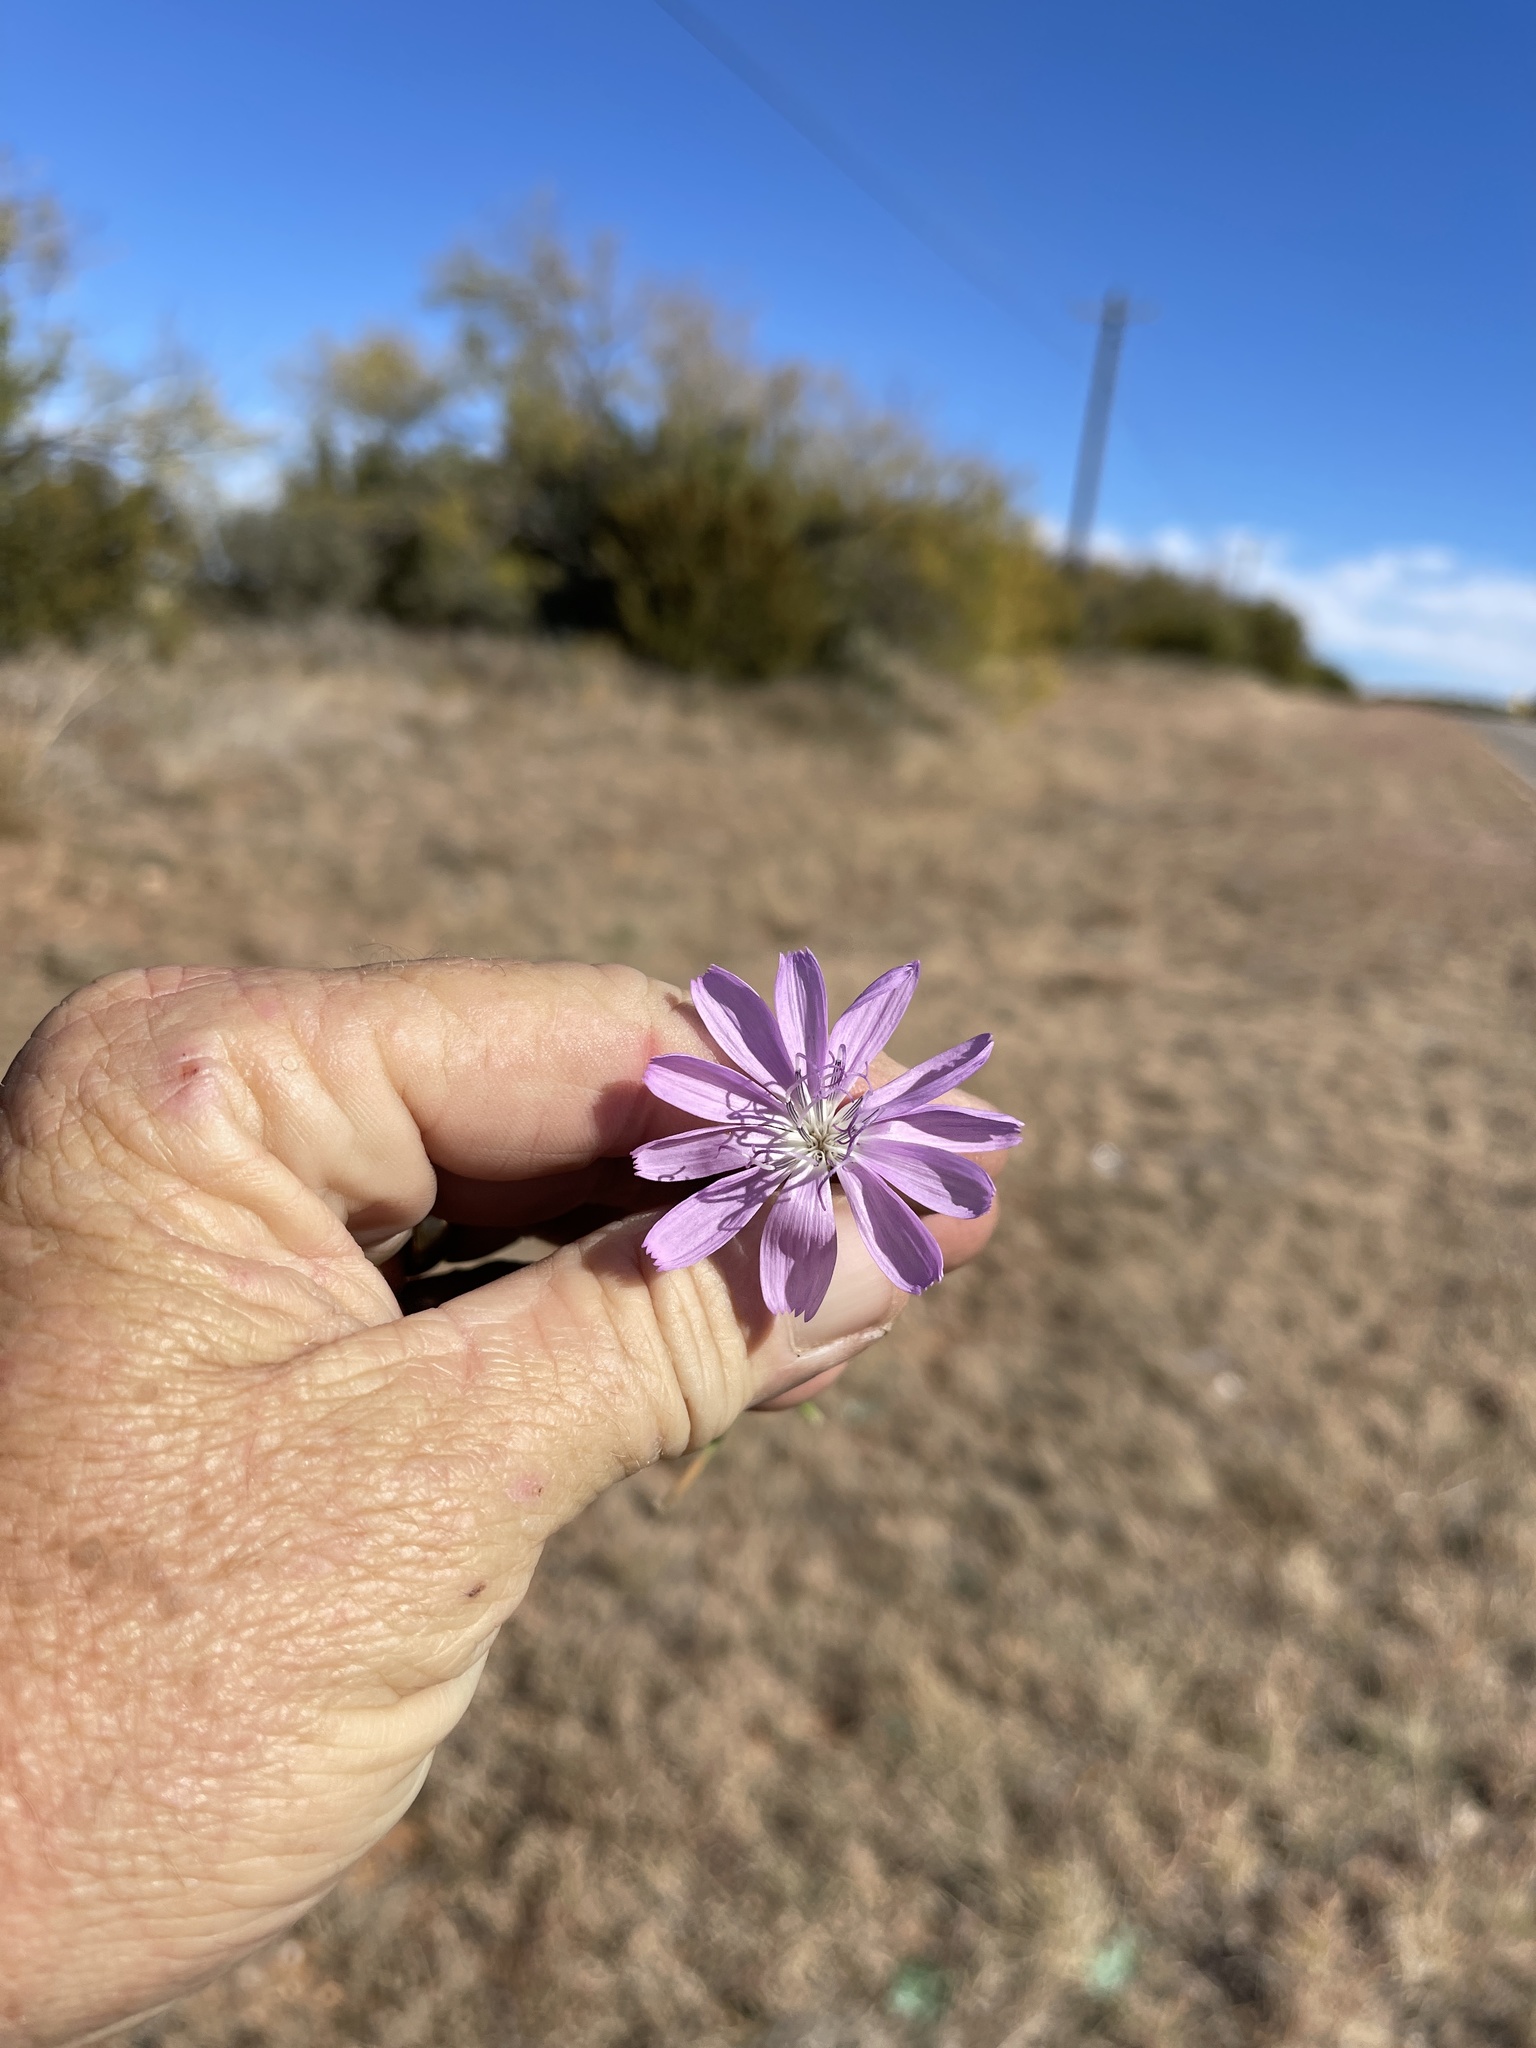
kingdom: Plantae
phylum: Tracheophyta
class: Magnoliopsida
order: Asterales
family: Asteraceae
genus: Lygodesmia
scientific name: Lygodesmia texana
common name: Texas skeleton-plant
